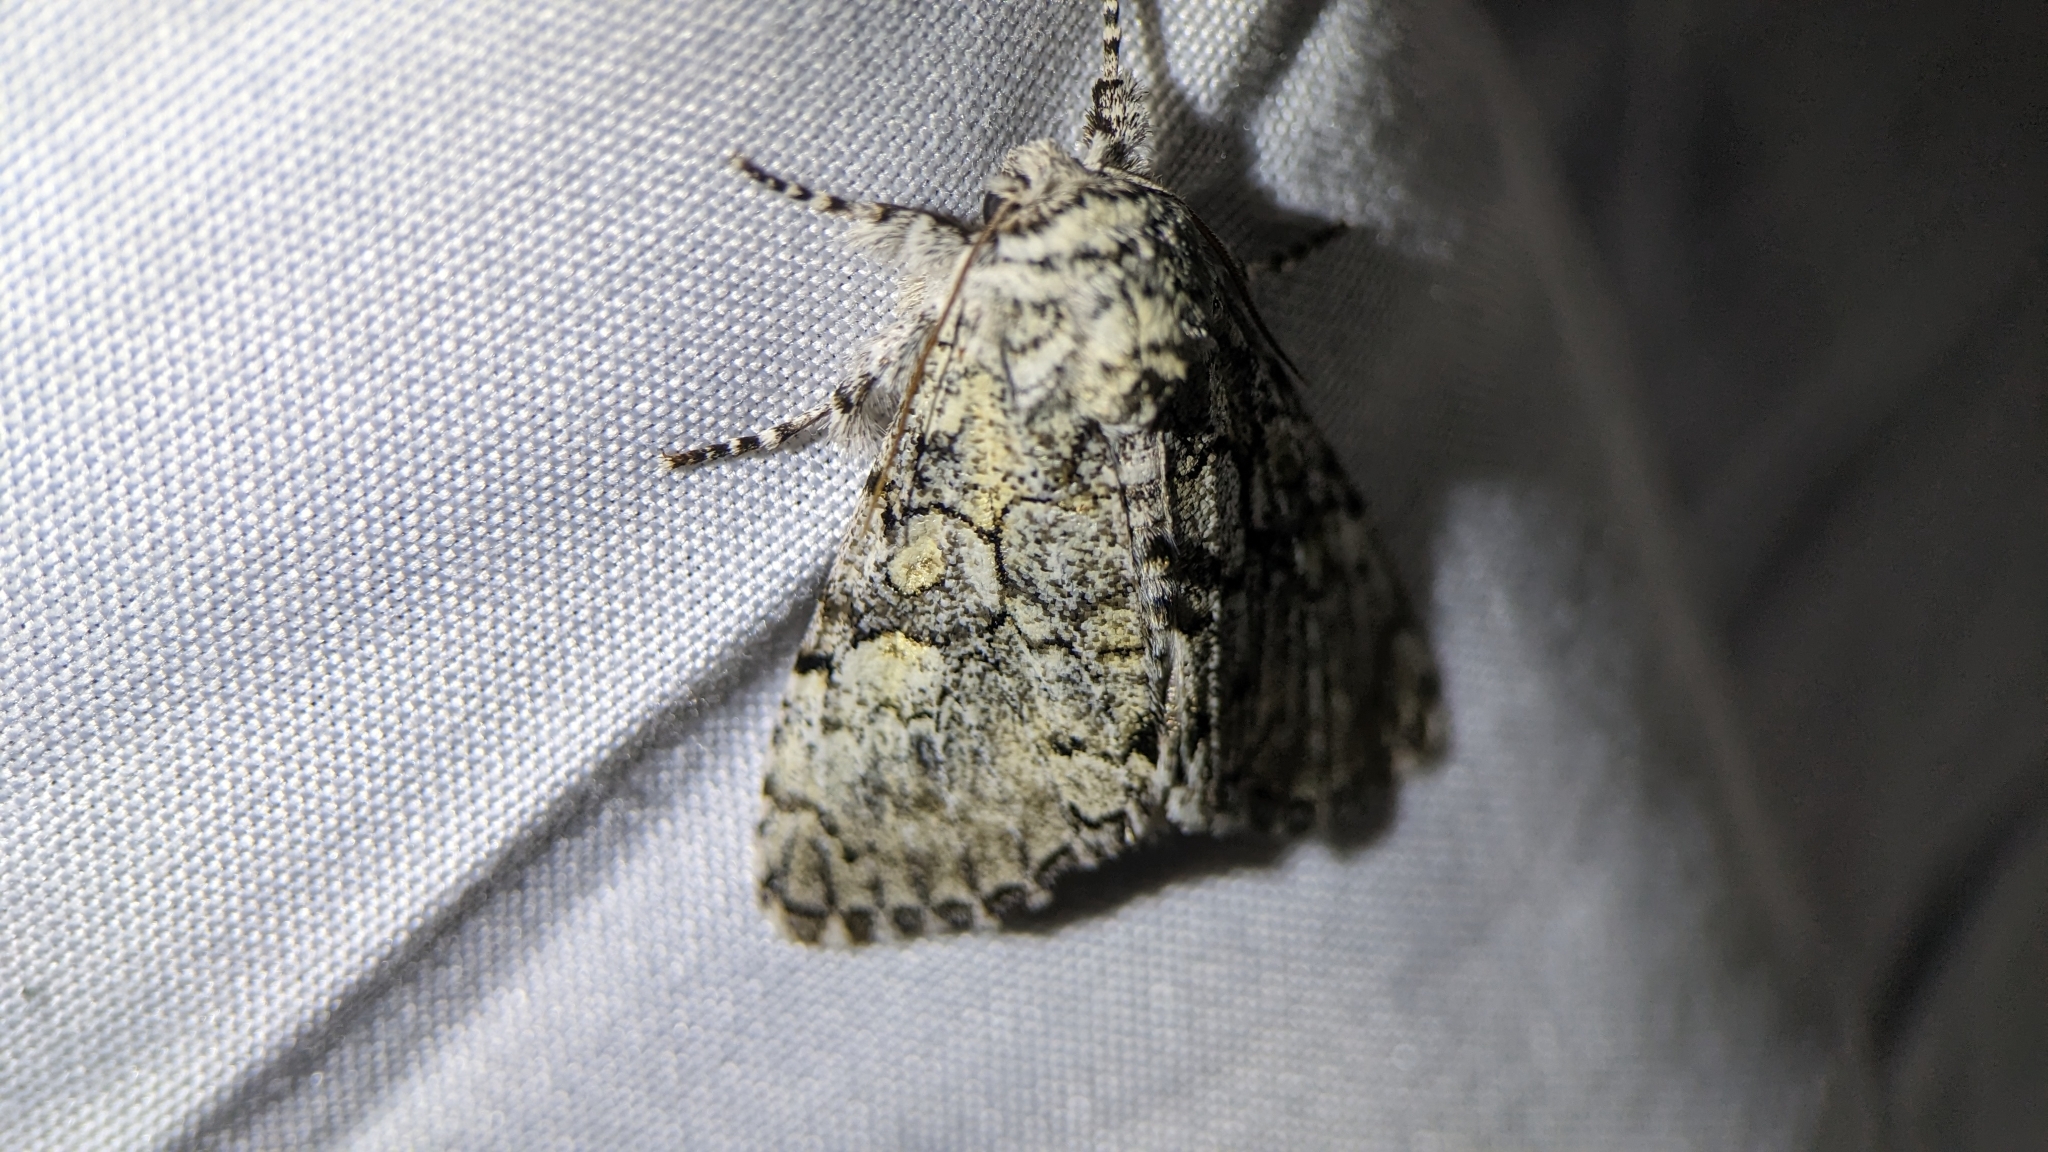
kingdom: Animalia
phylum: Arthropoda
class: Insecta
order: Lepidoptera
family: Noctuidae
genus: Charadra
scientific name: Charadra deridens
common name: Marbled tuffet
